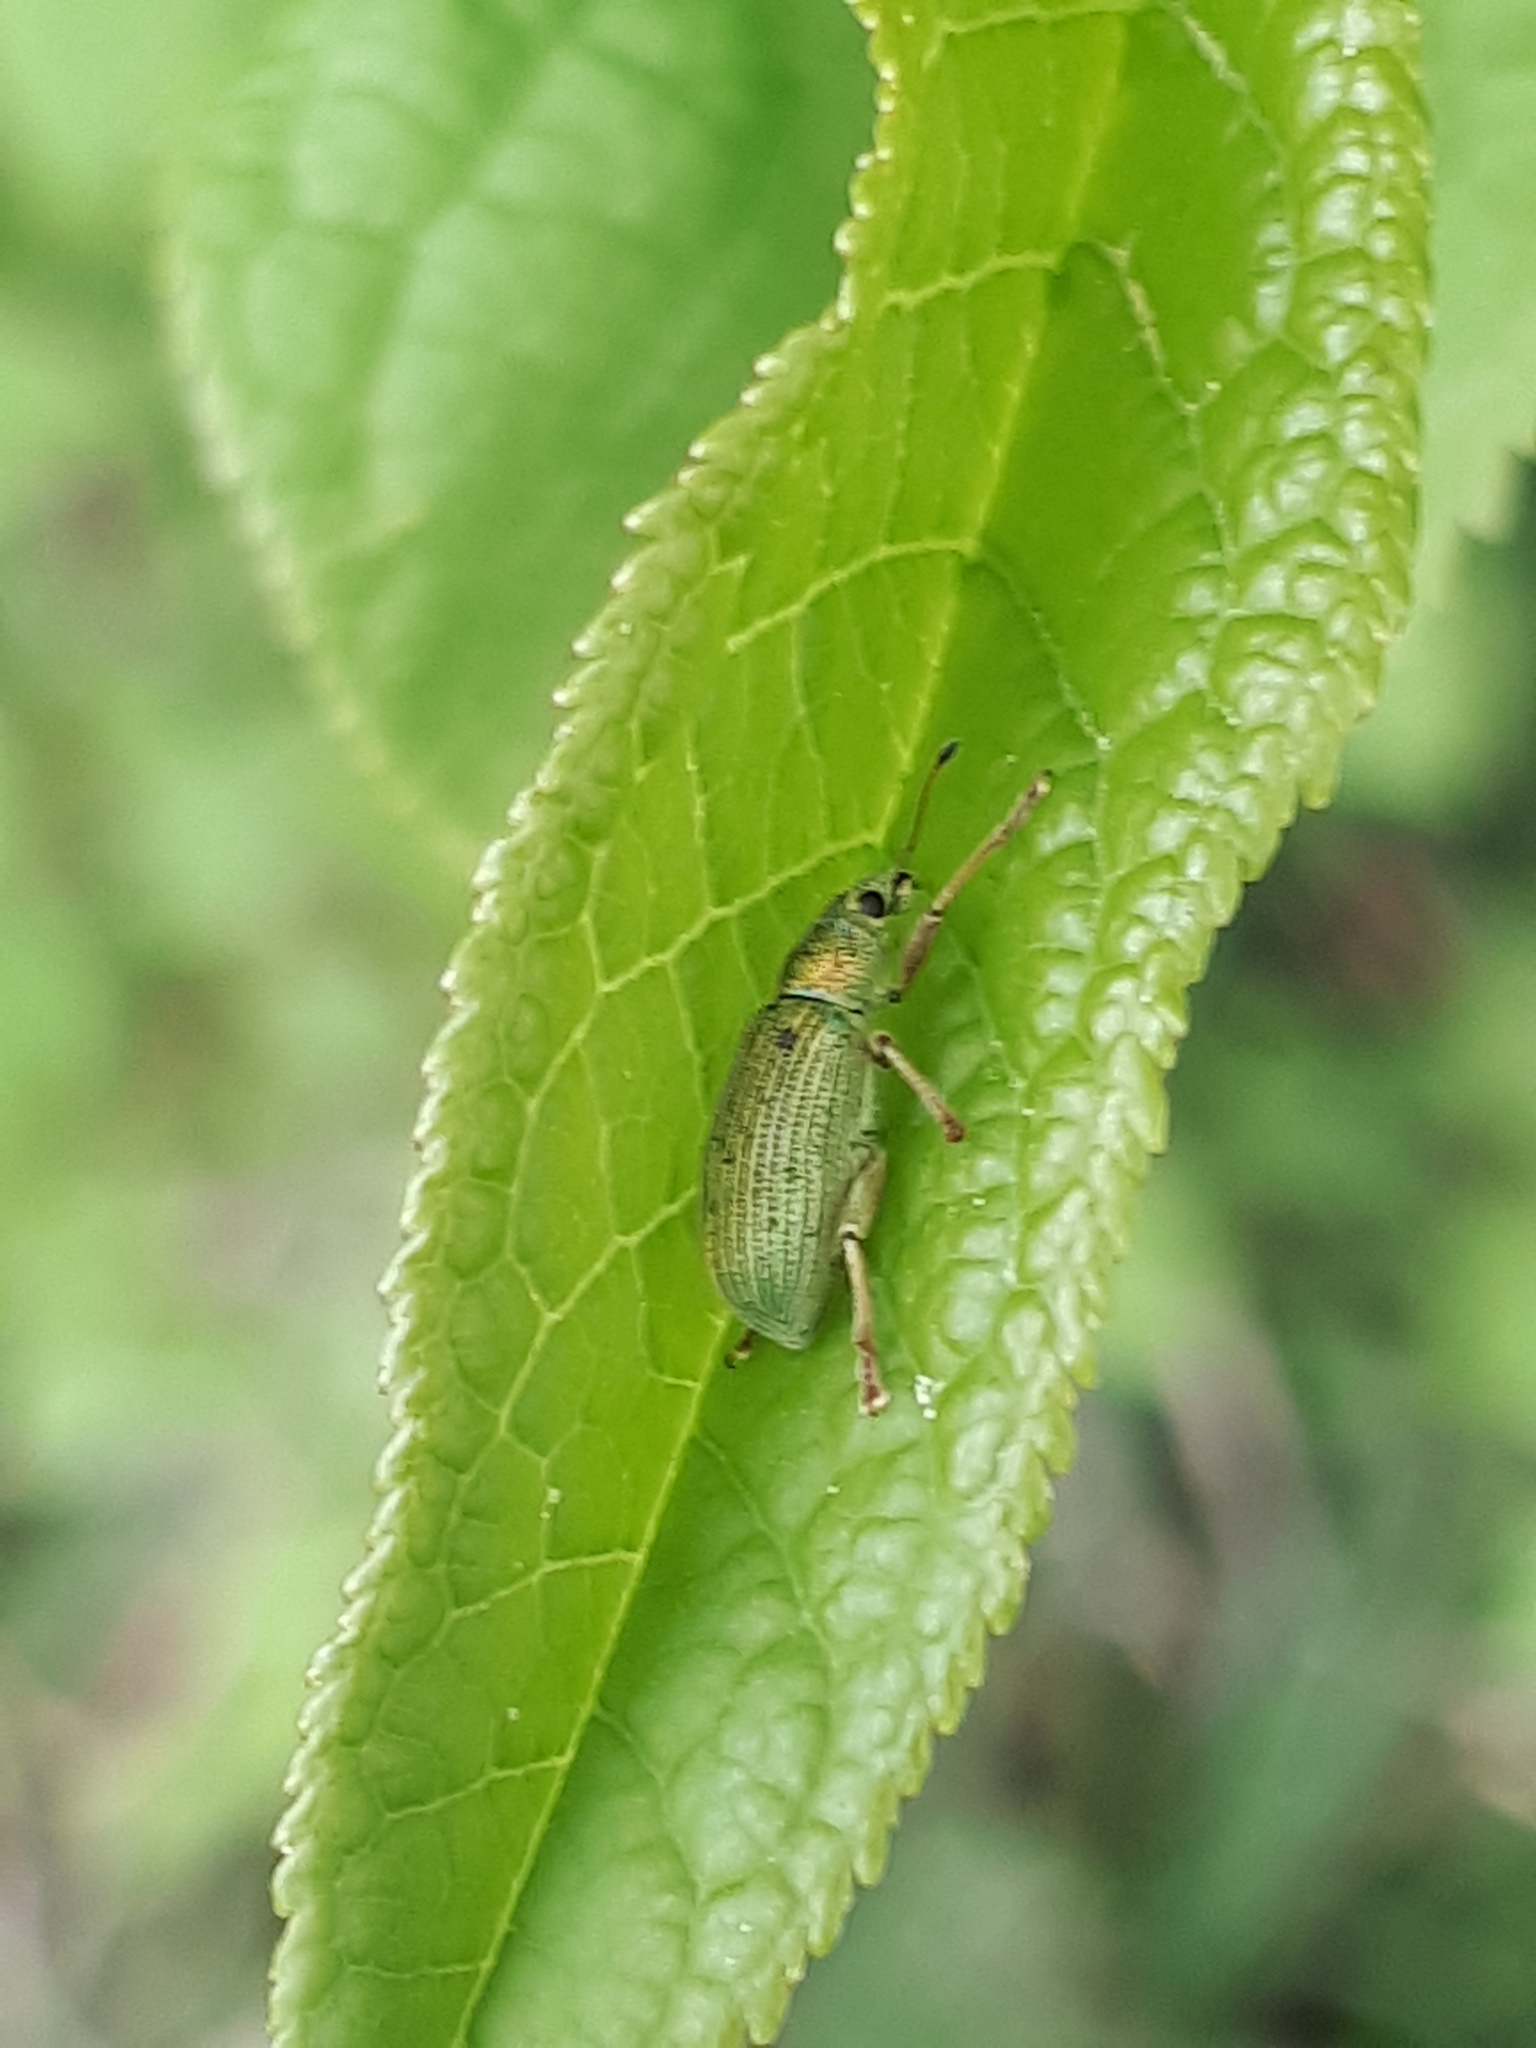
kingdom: Animalia
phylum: Arthropoda
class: Insecta
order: Coleoptera
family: Curculionidae
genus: Polydrusus
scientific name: Polydrusus formosus
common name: Weevil
